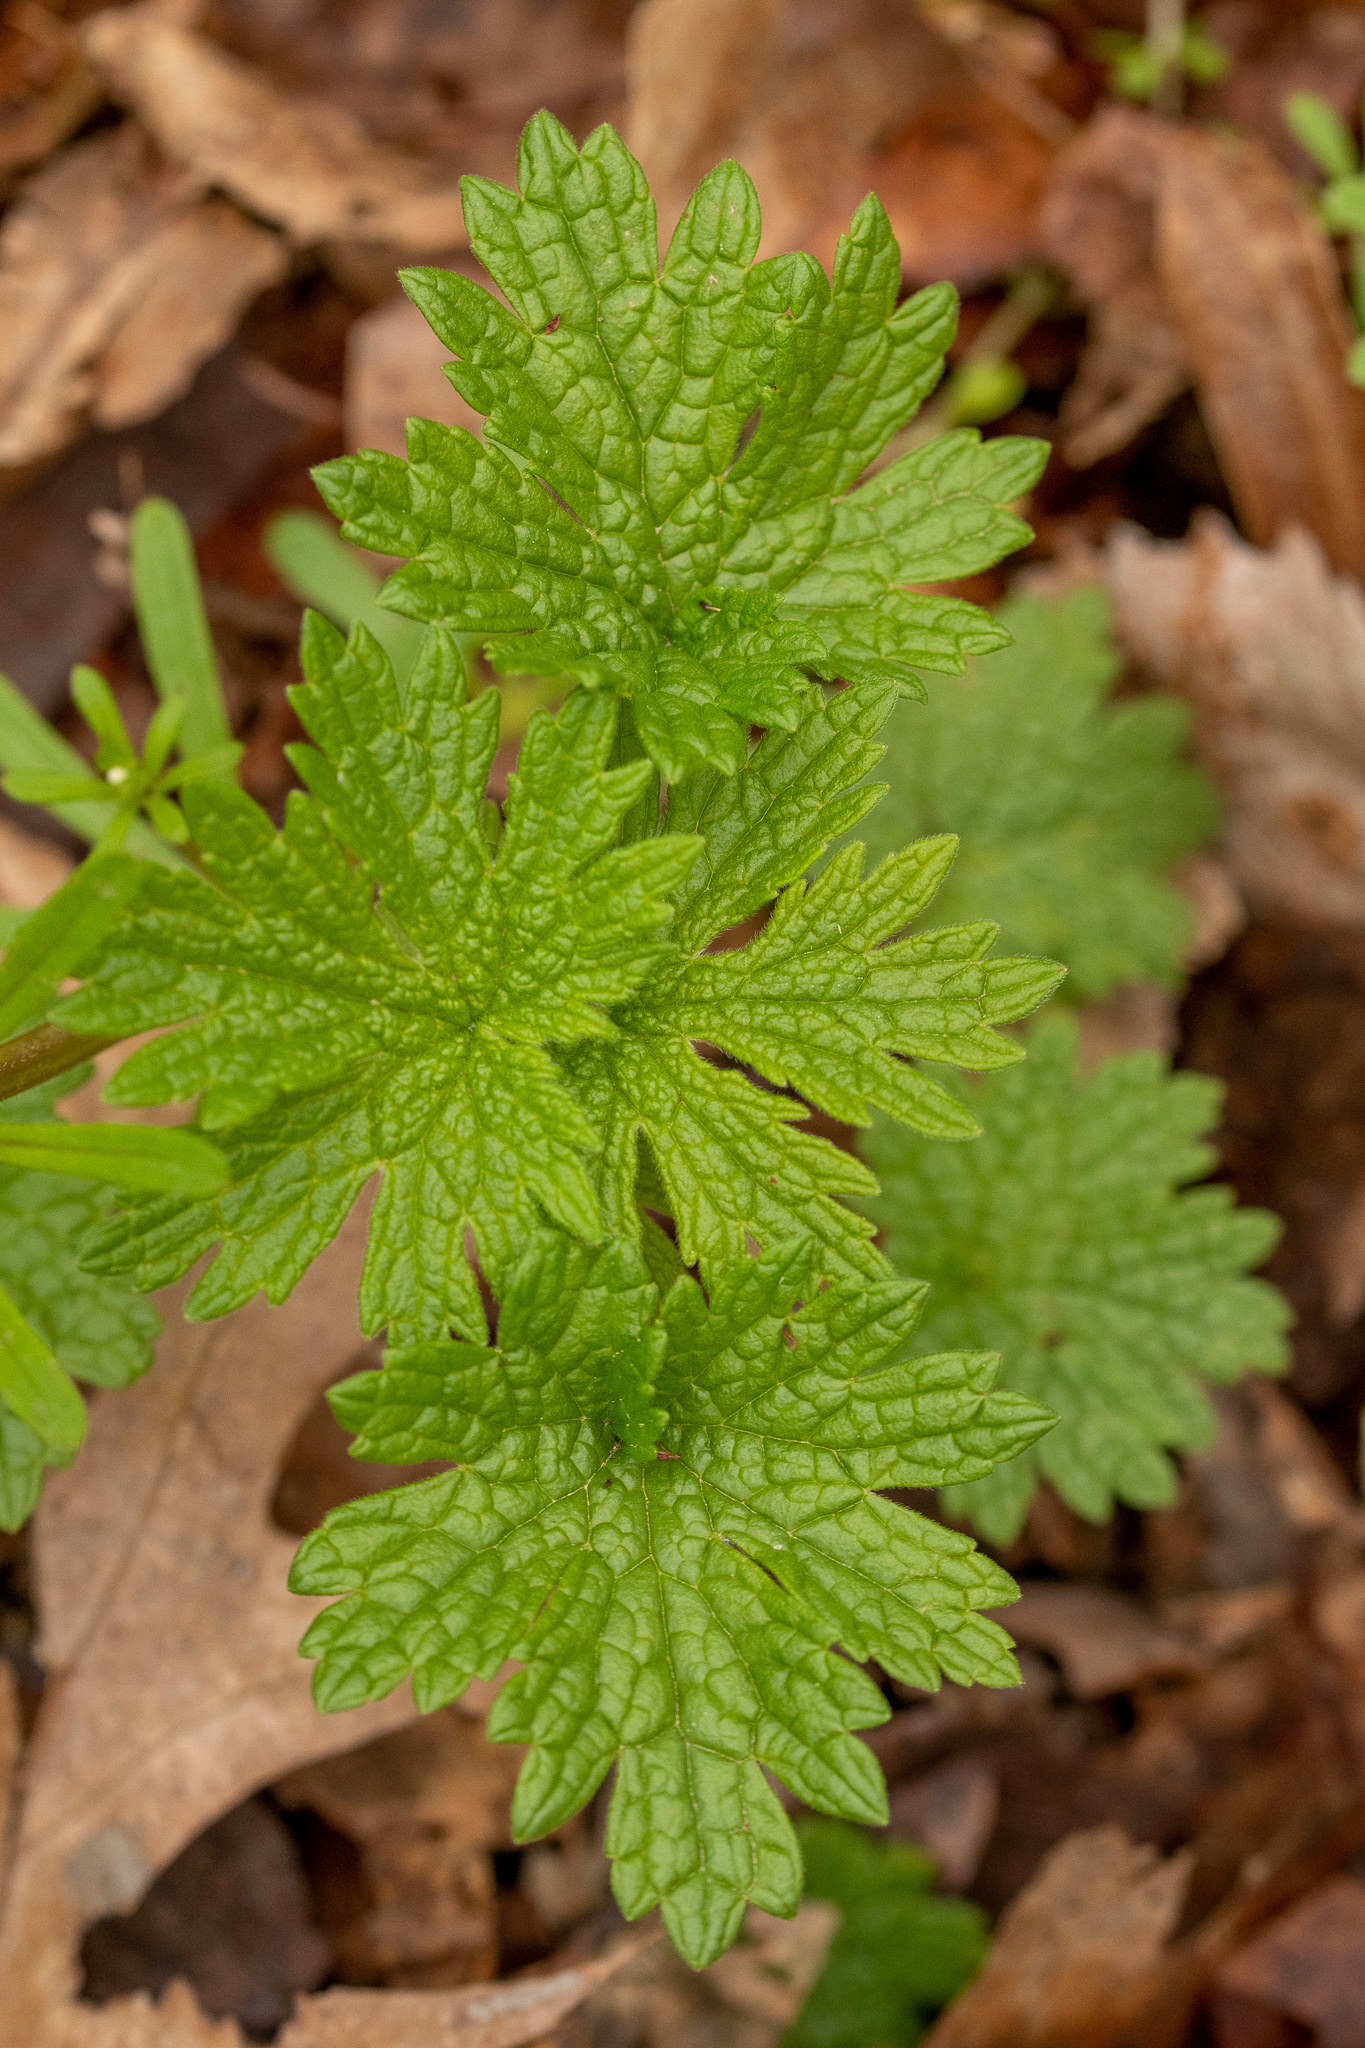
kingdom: Plantae
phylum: Tracheophyta
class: Magnoliopsida
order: Lamiales
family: Lamiaceae
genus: Leonurus
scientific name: Leonurus cardiaca
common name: Motherwort
